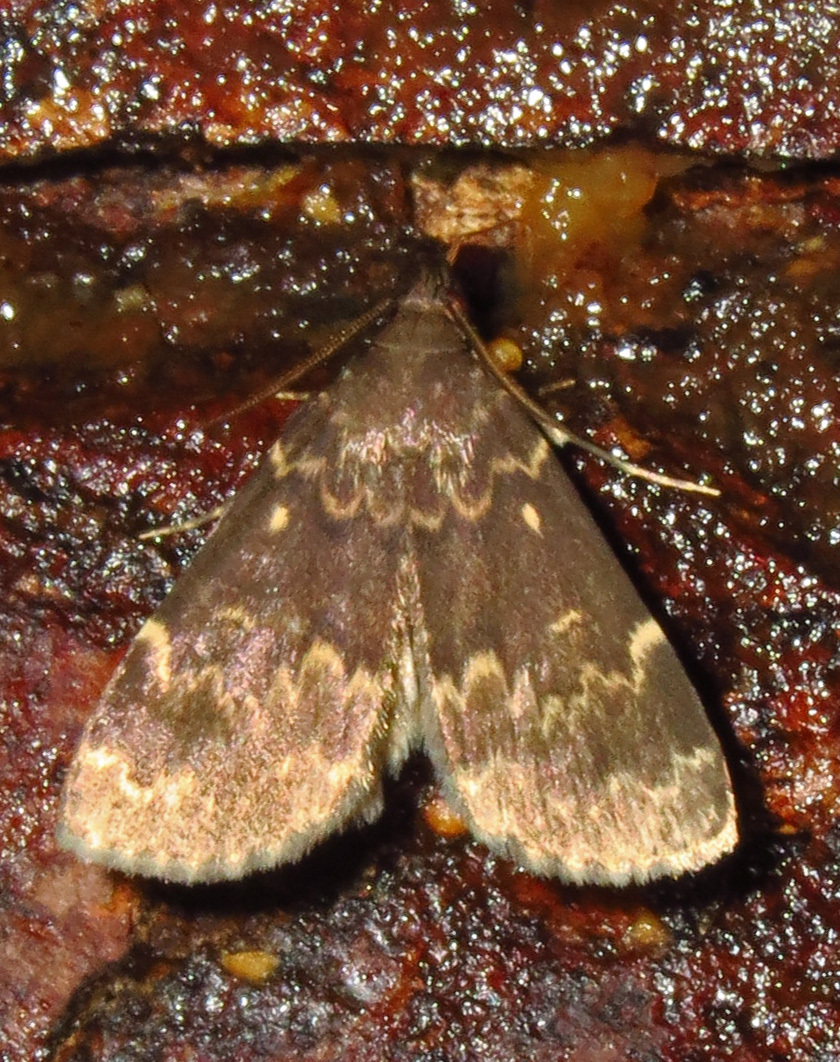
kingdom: Animalia
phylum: Arthropoda
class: Insecta
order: Lepidoptera
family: Erebidae
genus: Idia
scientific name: Idia lubricalis
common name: Twin-striped tabby
